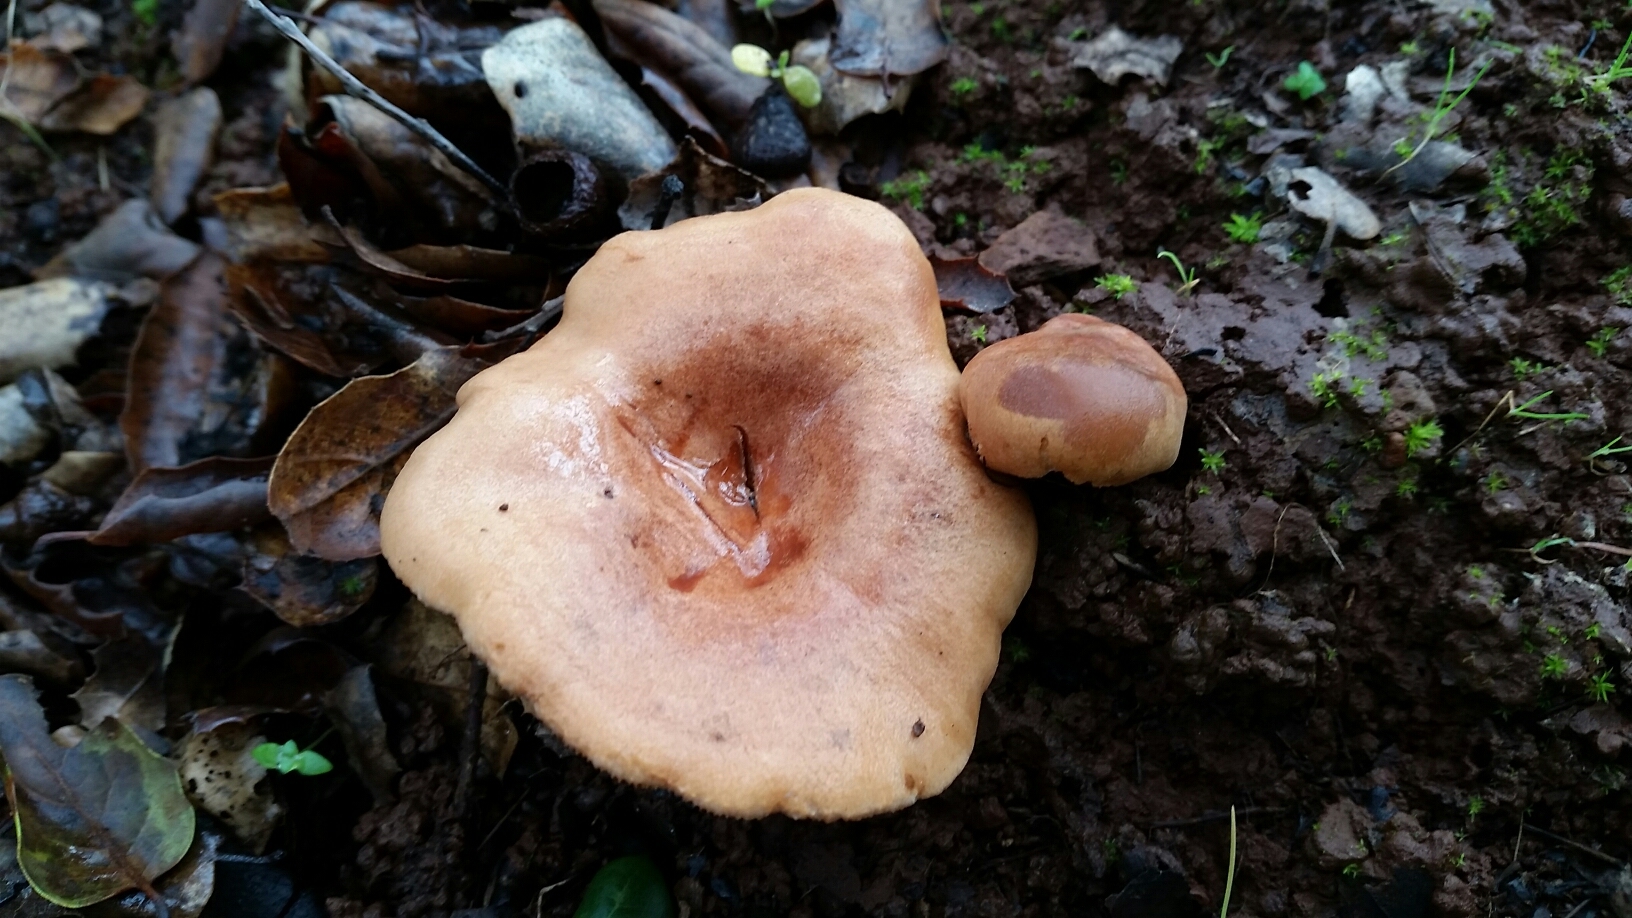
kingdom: Fungi
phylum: Basidiomycota
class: Agaricomycetes
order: Russulales
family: Russulaceae
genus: Lactarius
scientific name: Lactarius xanthogalactus
